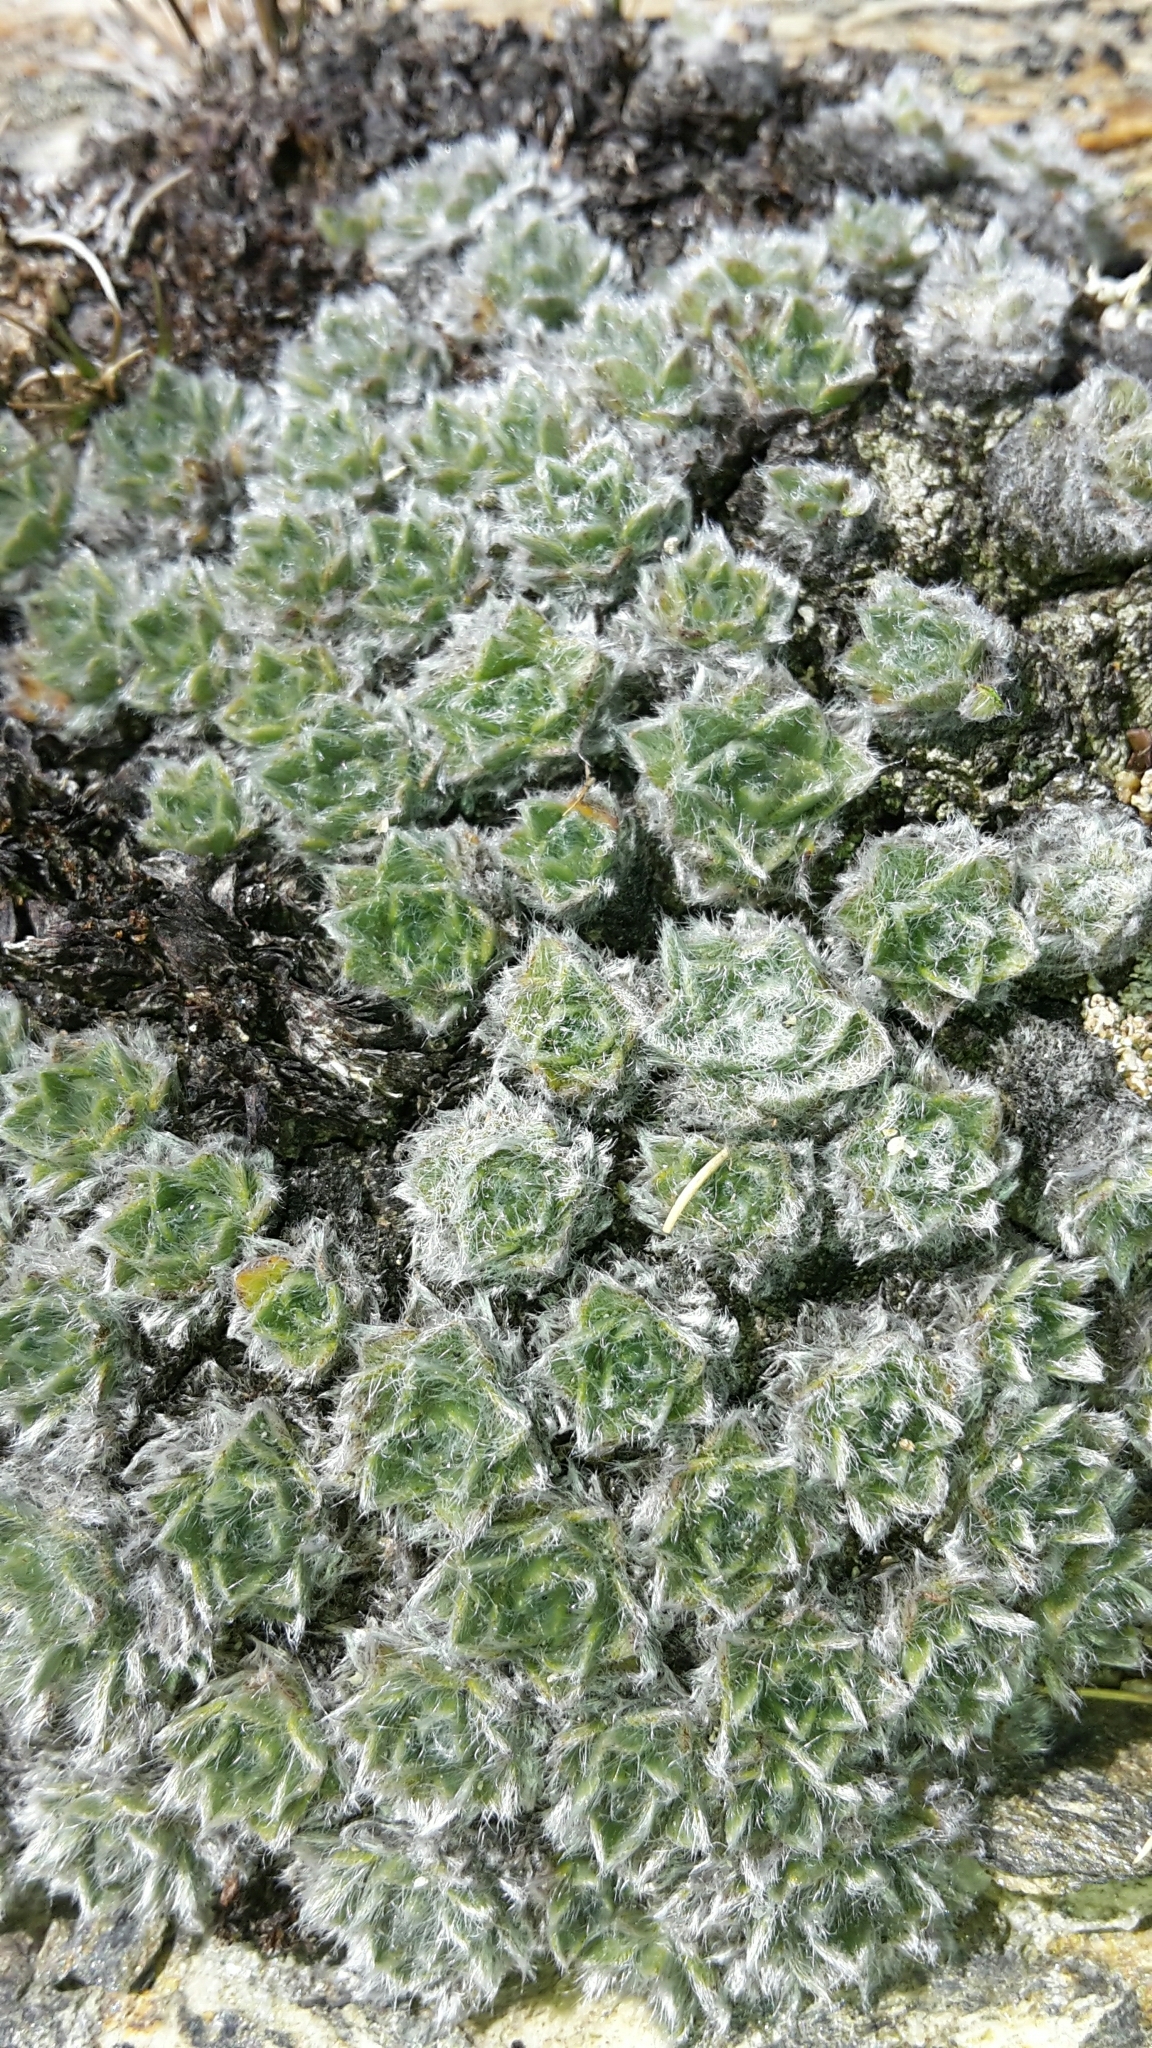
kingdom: Plantae
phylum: Tracheophyta
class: Magnoliopsida
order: Boraginales
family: Boraginaceae
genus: Myosotis
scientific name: Myosotis pulvinaris
